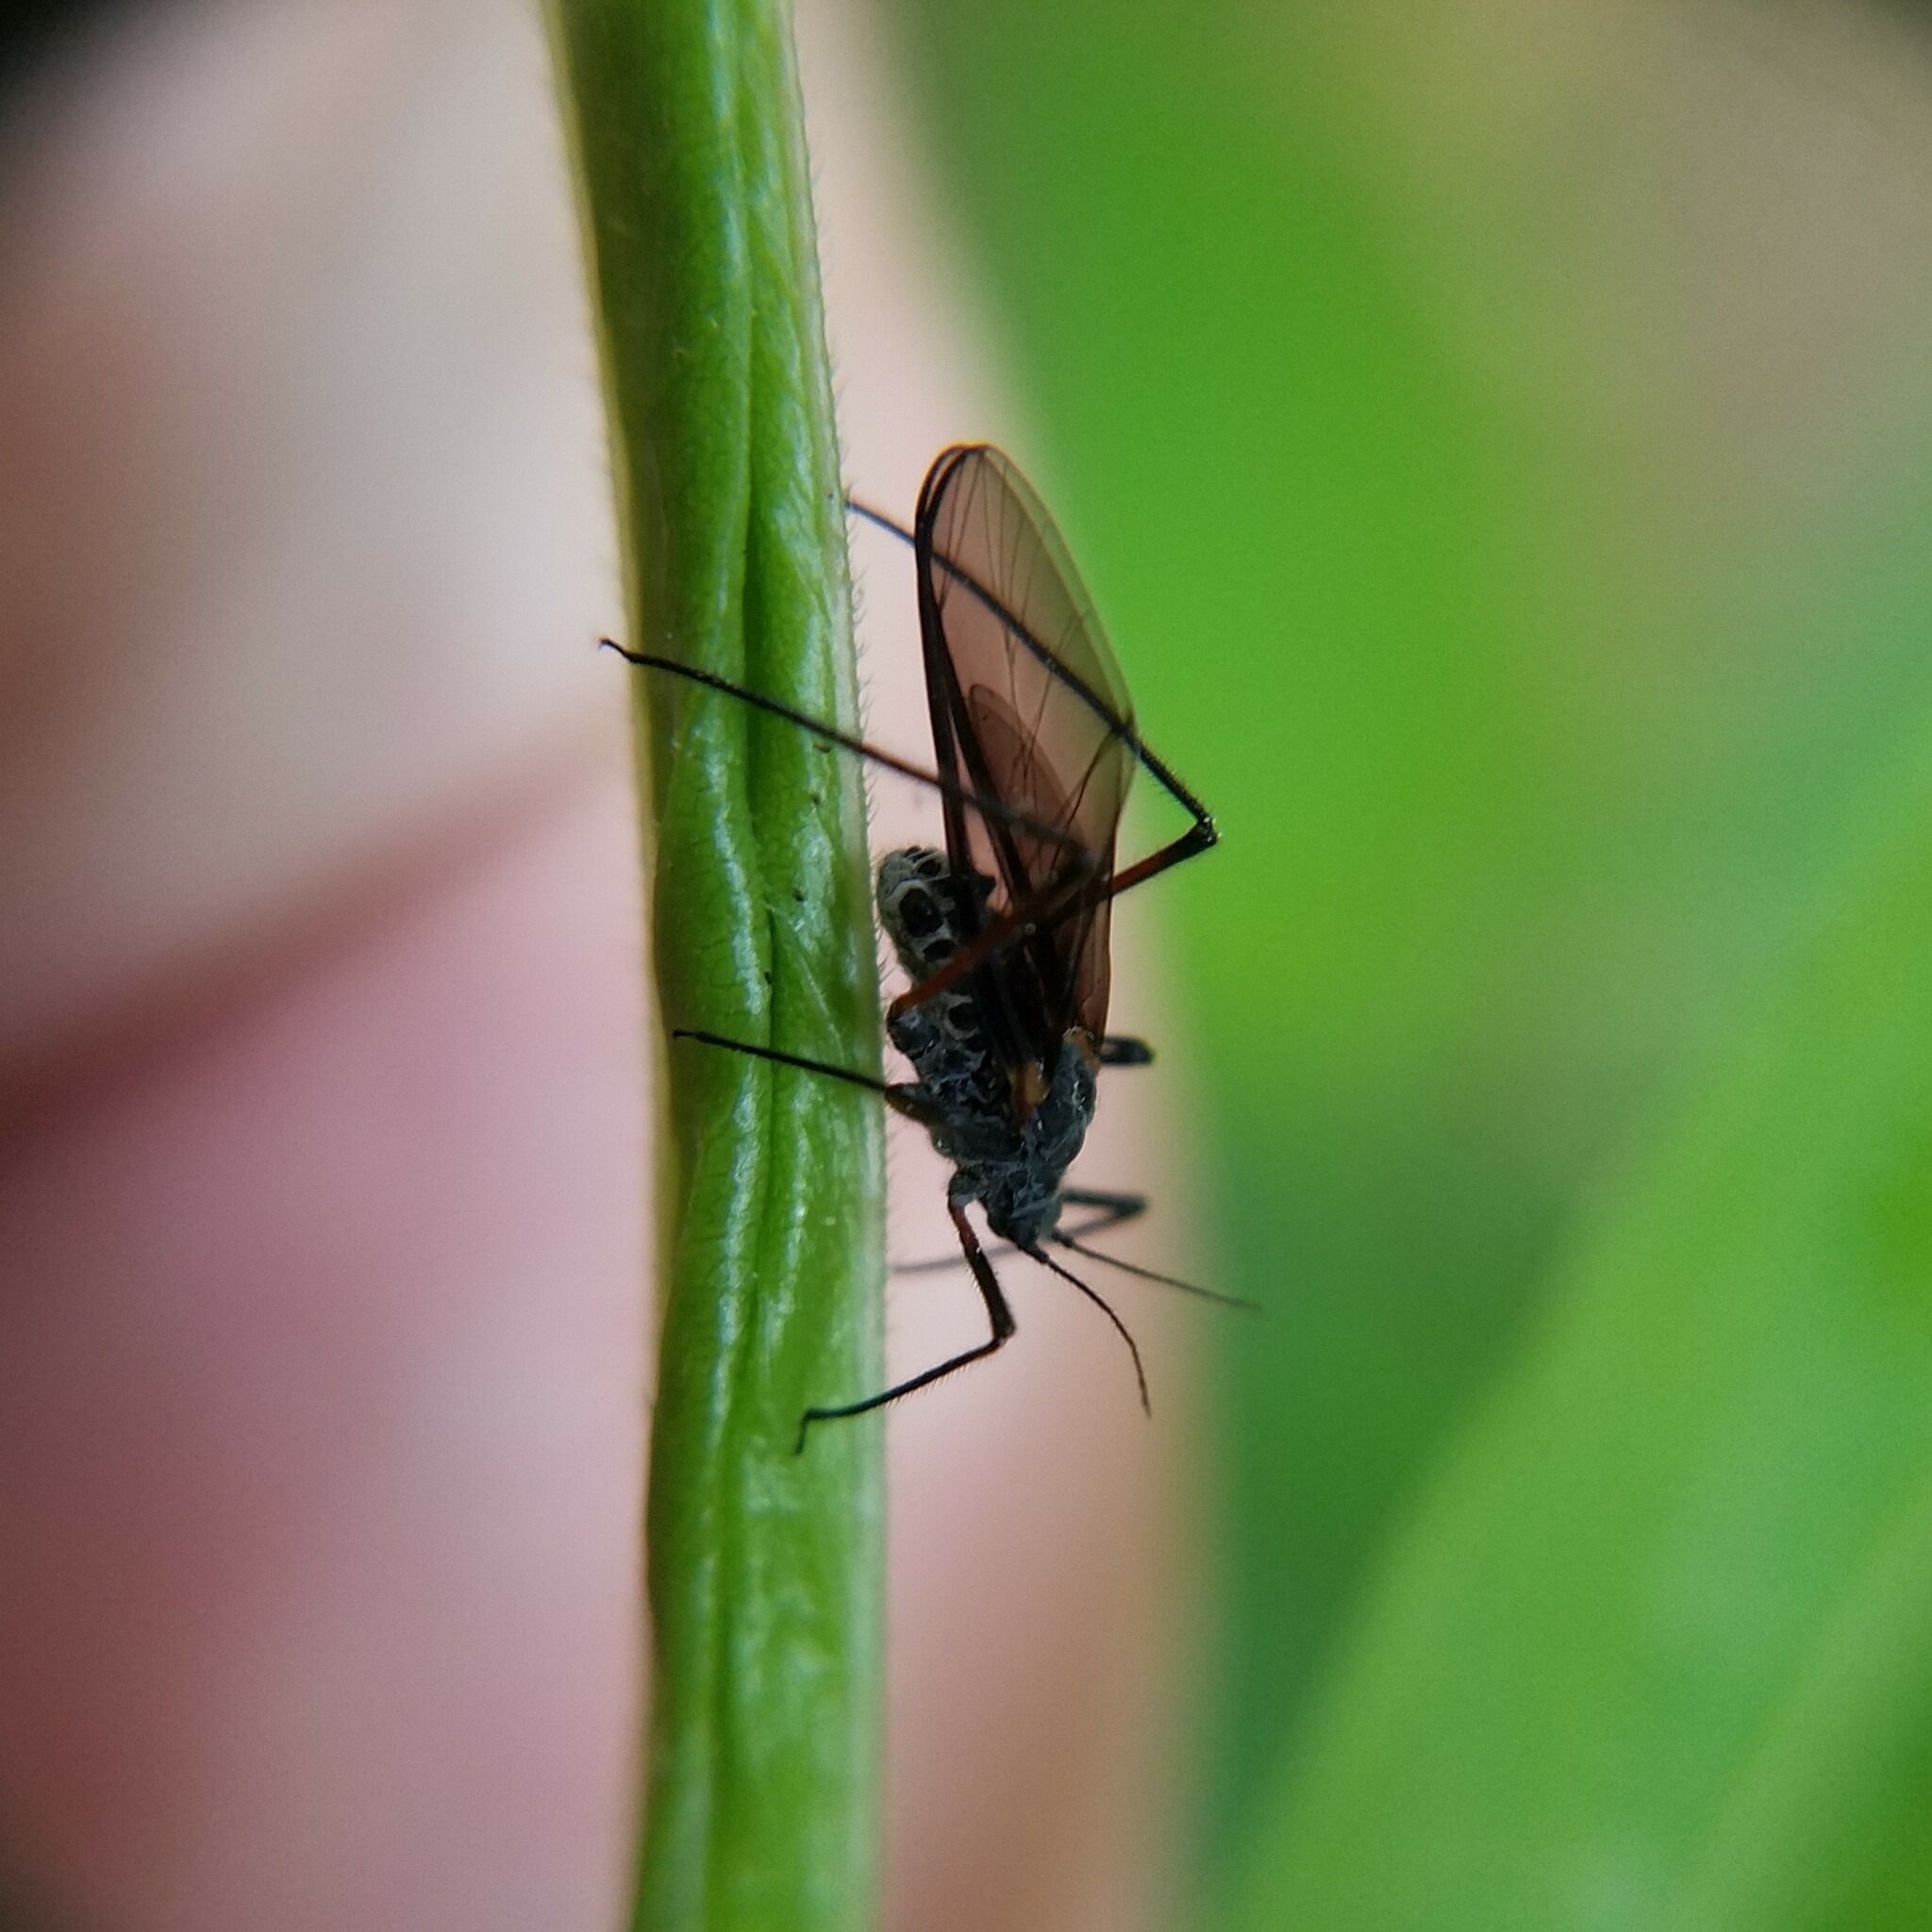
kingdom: Animalia
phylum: Arthropoda
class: Insecta
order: Hemiptera
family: Aphididae
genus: Longistigma
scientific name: Longistigma caryae
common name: Giant bark aphid
